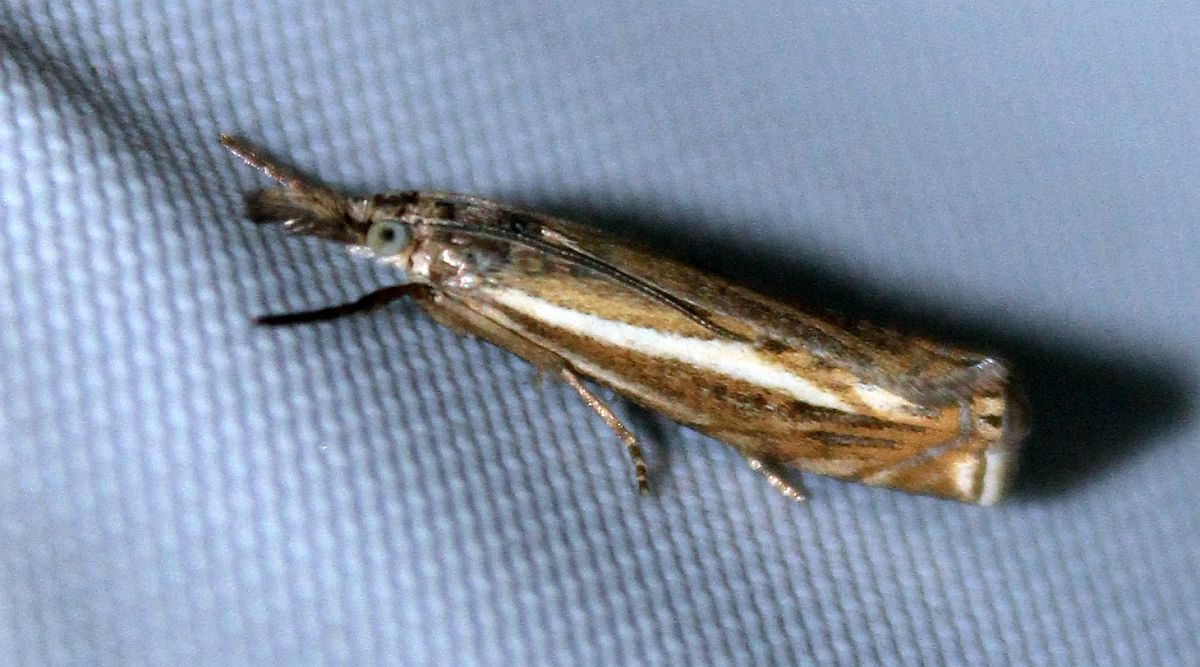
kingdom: Animalia
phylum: Arthropoda
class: Insecta
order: Lepidoptera
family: Crambidae
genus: Crambus
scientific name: Crambus nemorella
